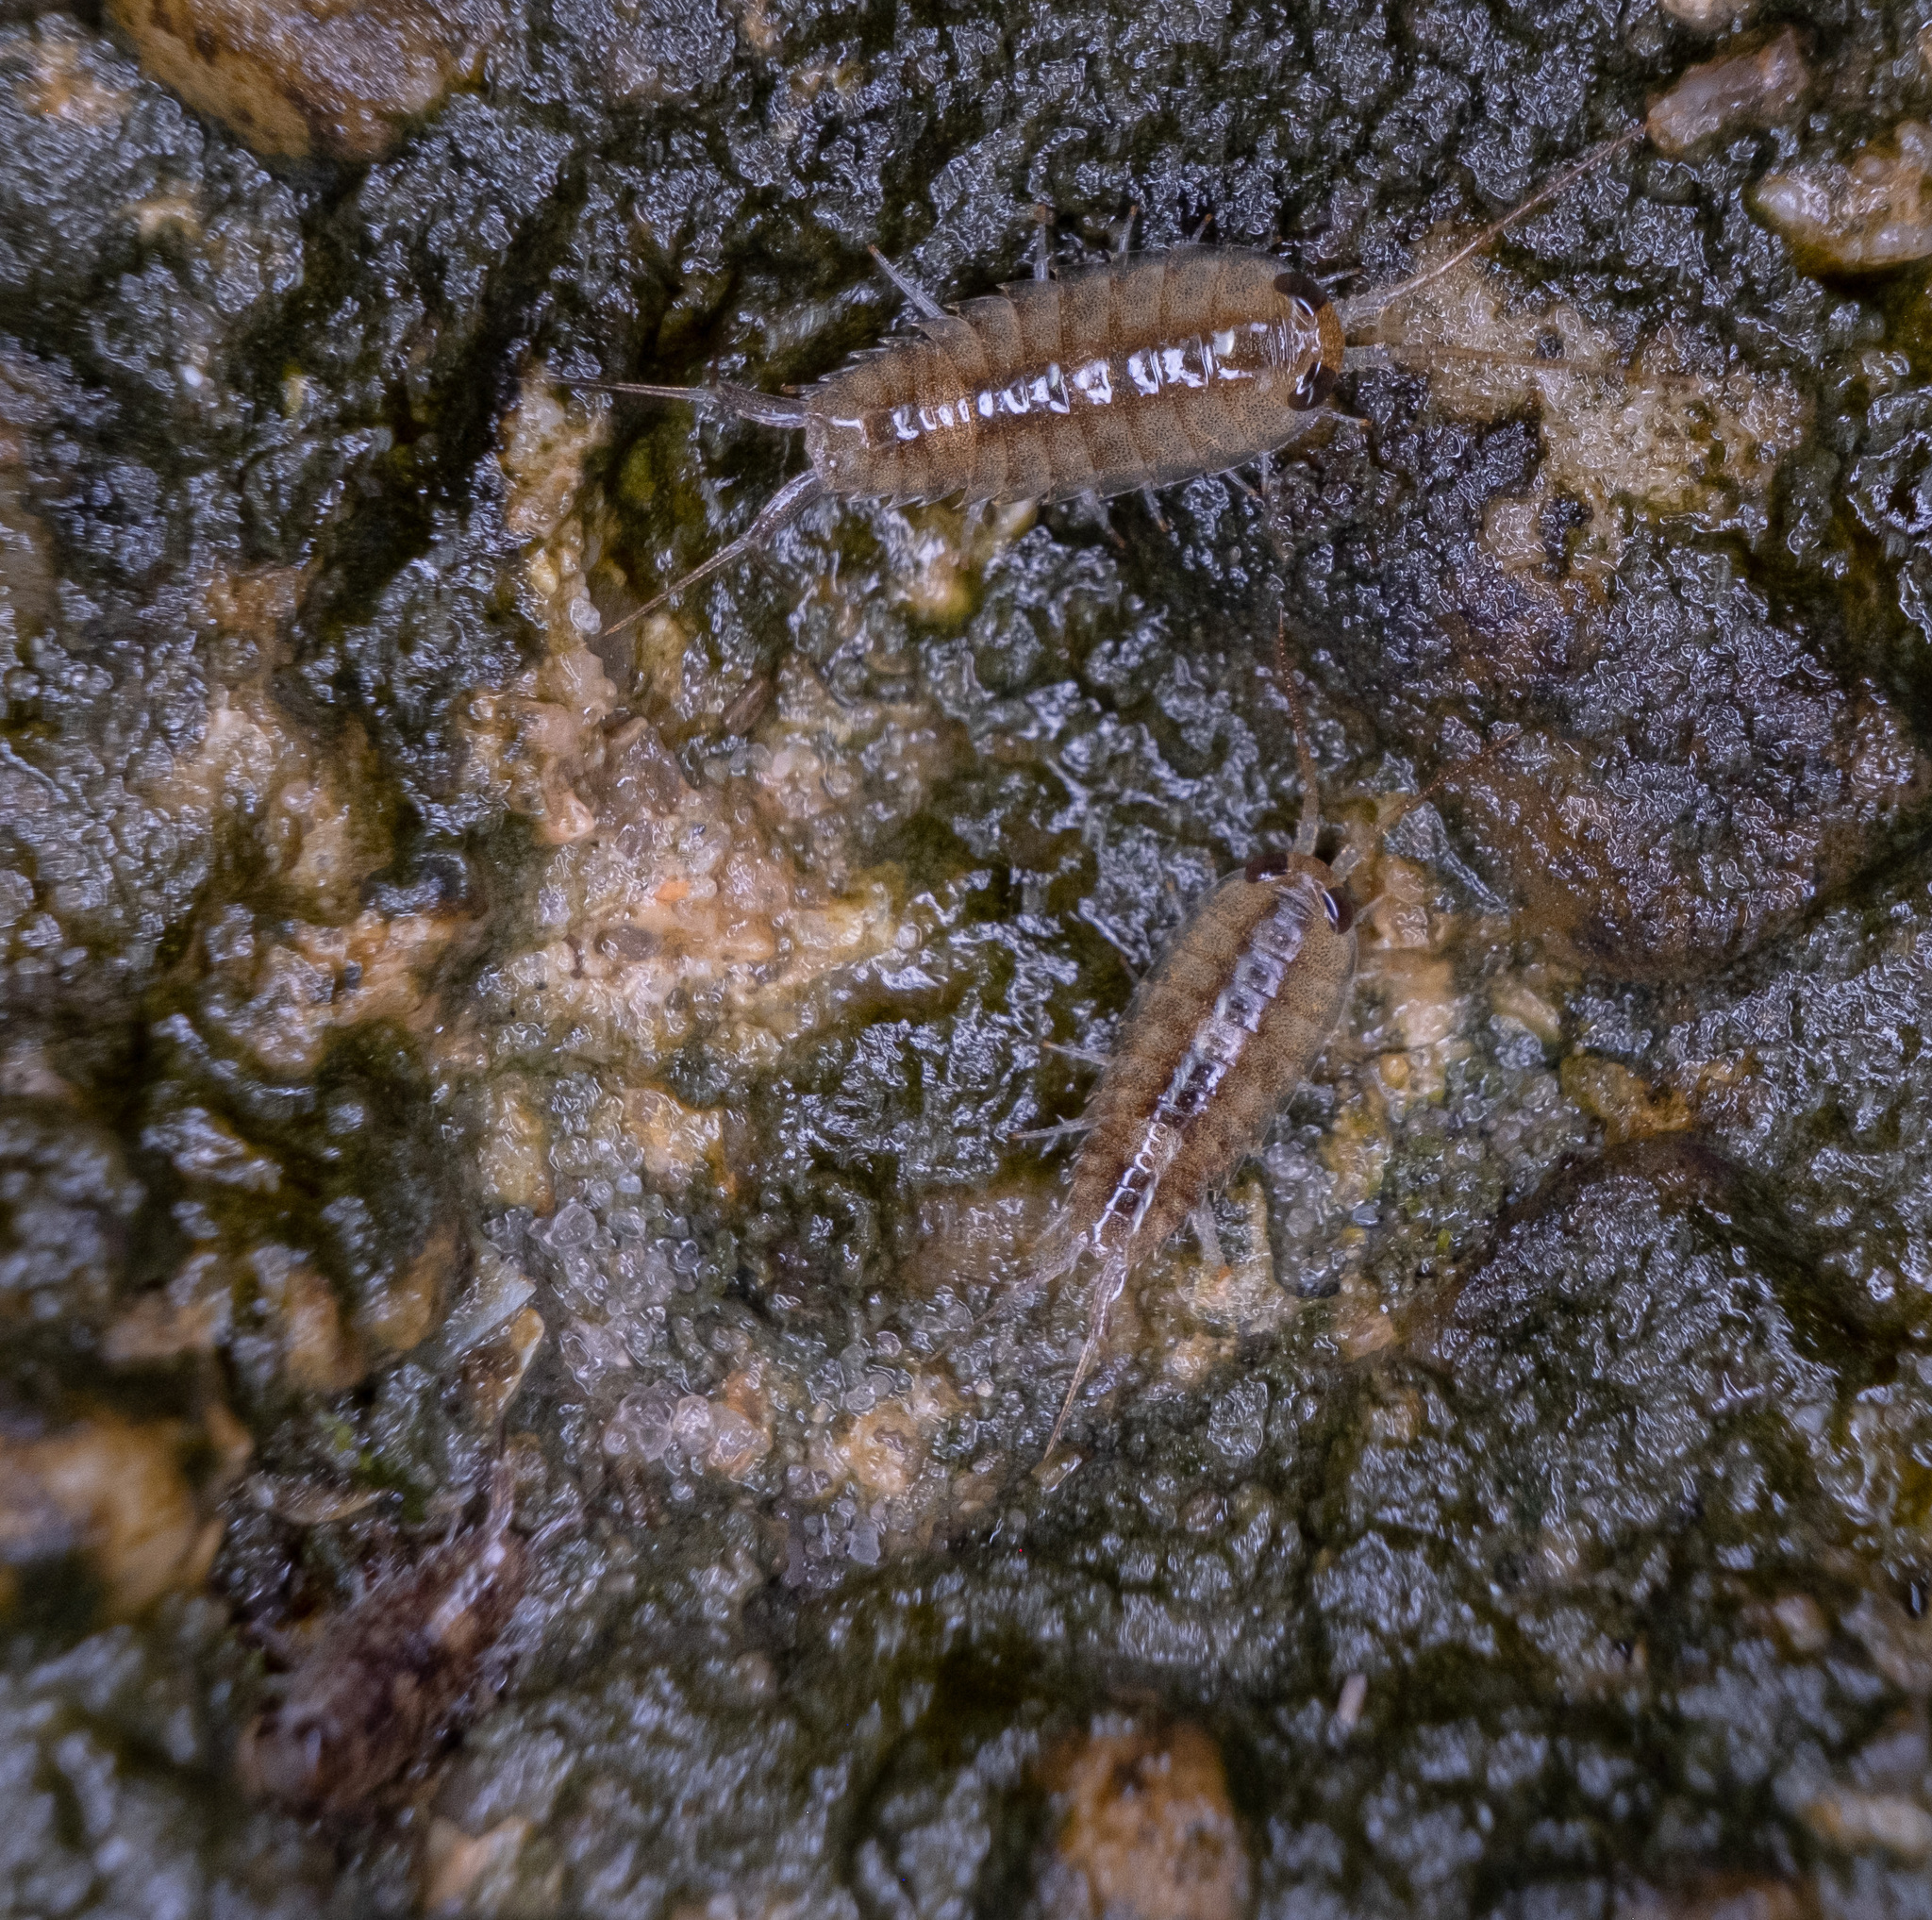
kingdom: Animalia
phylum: Arthropoda
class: Malacostraca
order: Isopoda
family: Ligiidae
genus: Ligia
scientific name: Ligia exotica
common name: Wharf roach
